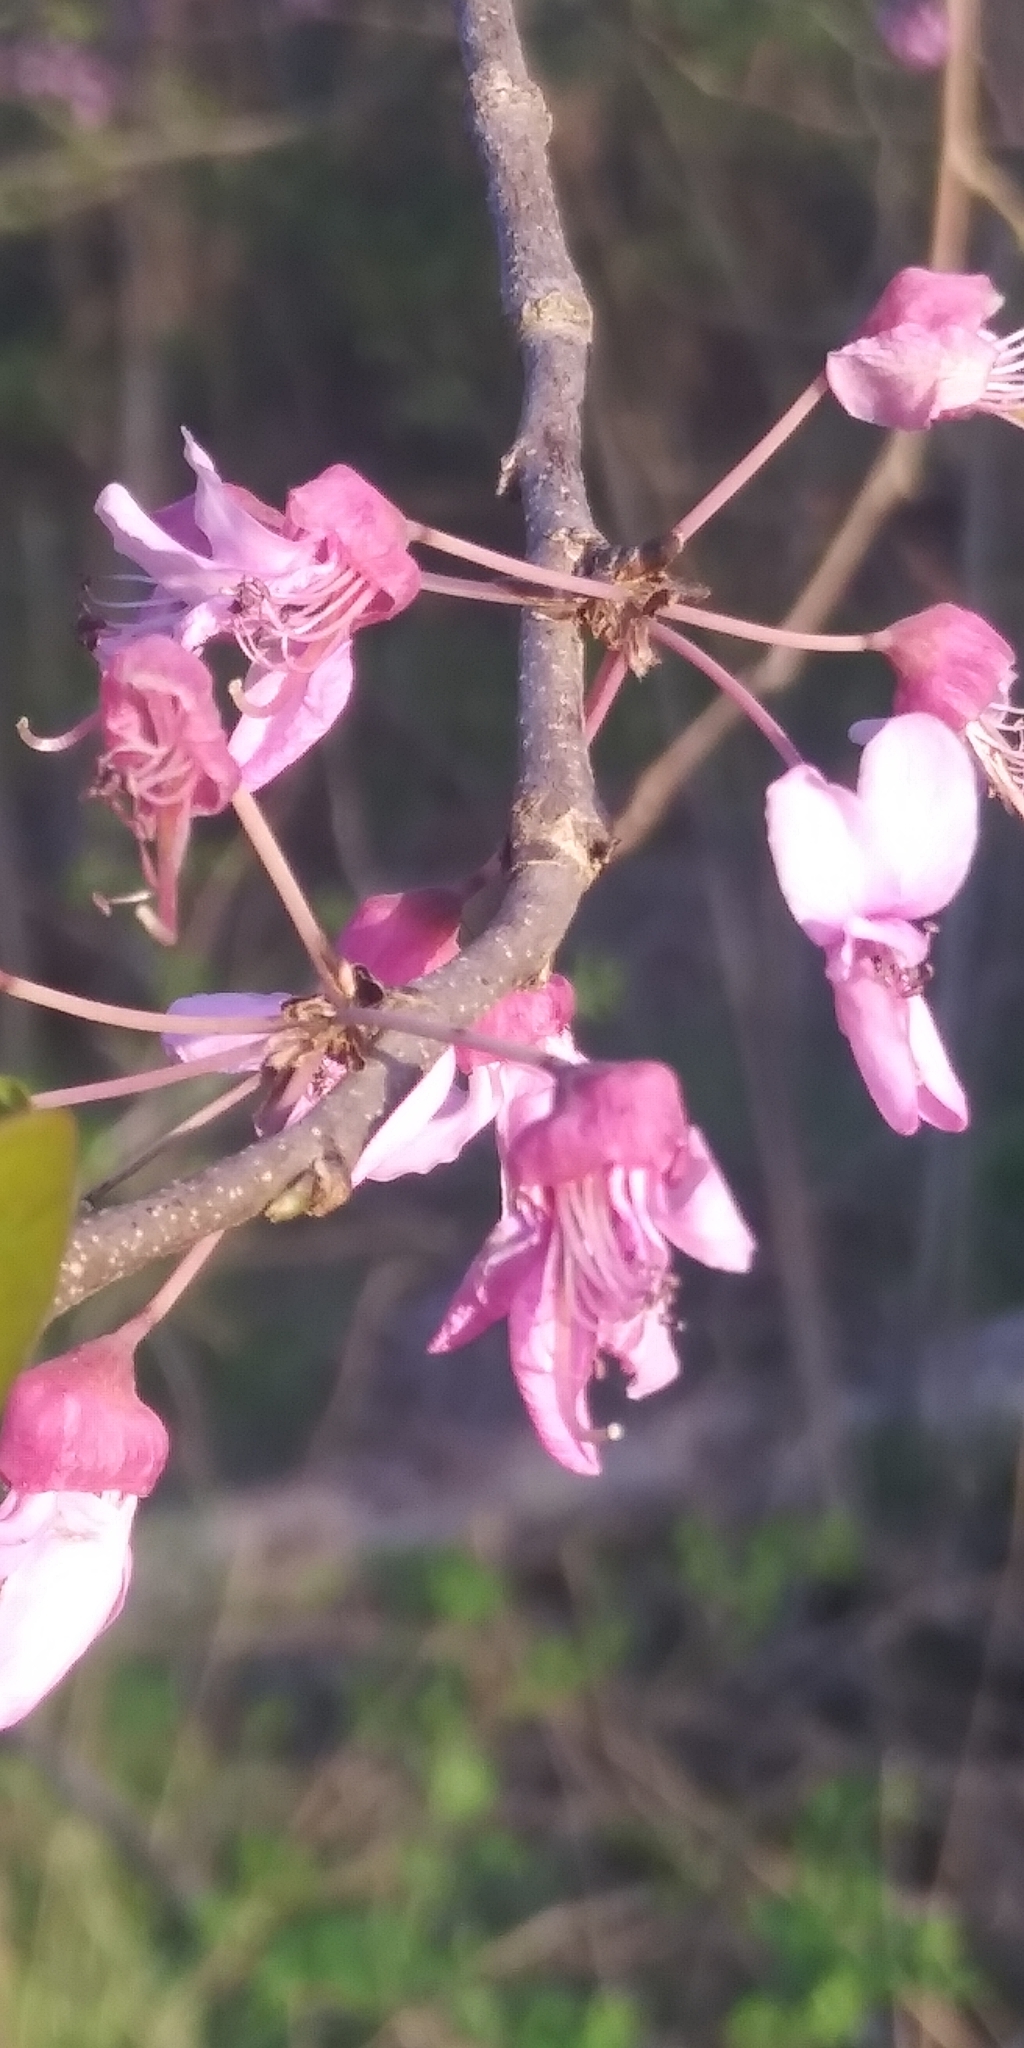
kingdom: Plantae
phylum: Tracheophyta
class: Magnoliopsida
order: Fabales
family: Fabaceae
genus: Cercis
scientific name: Cercis canadensis
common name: Eastern redbud
